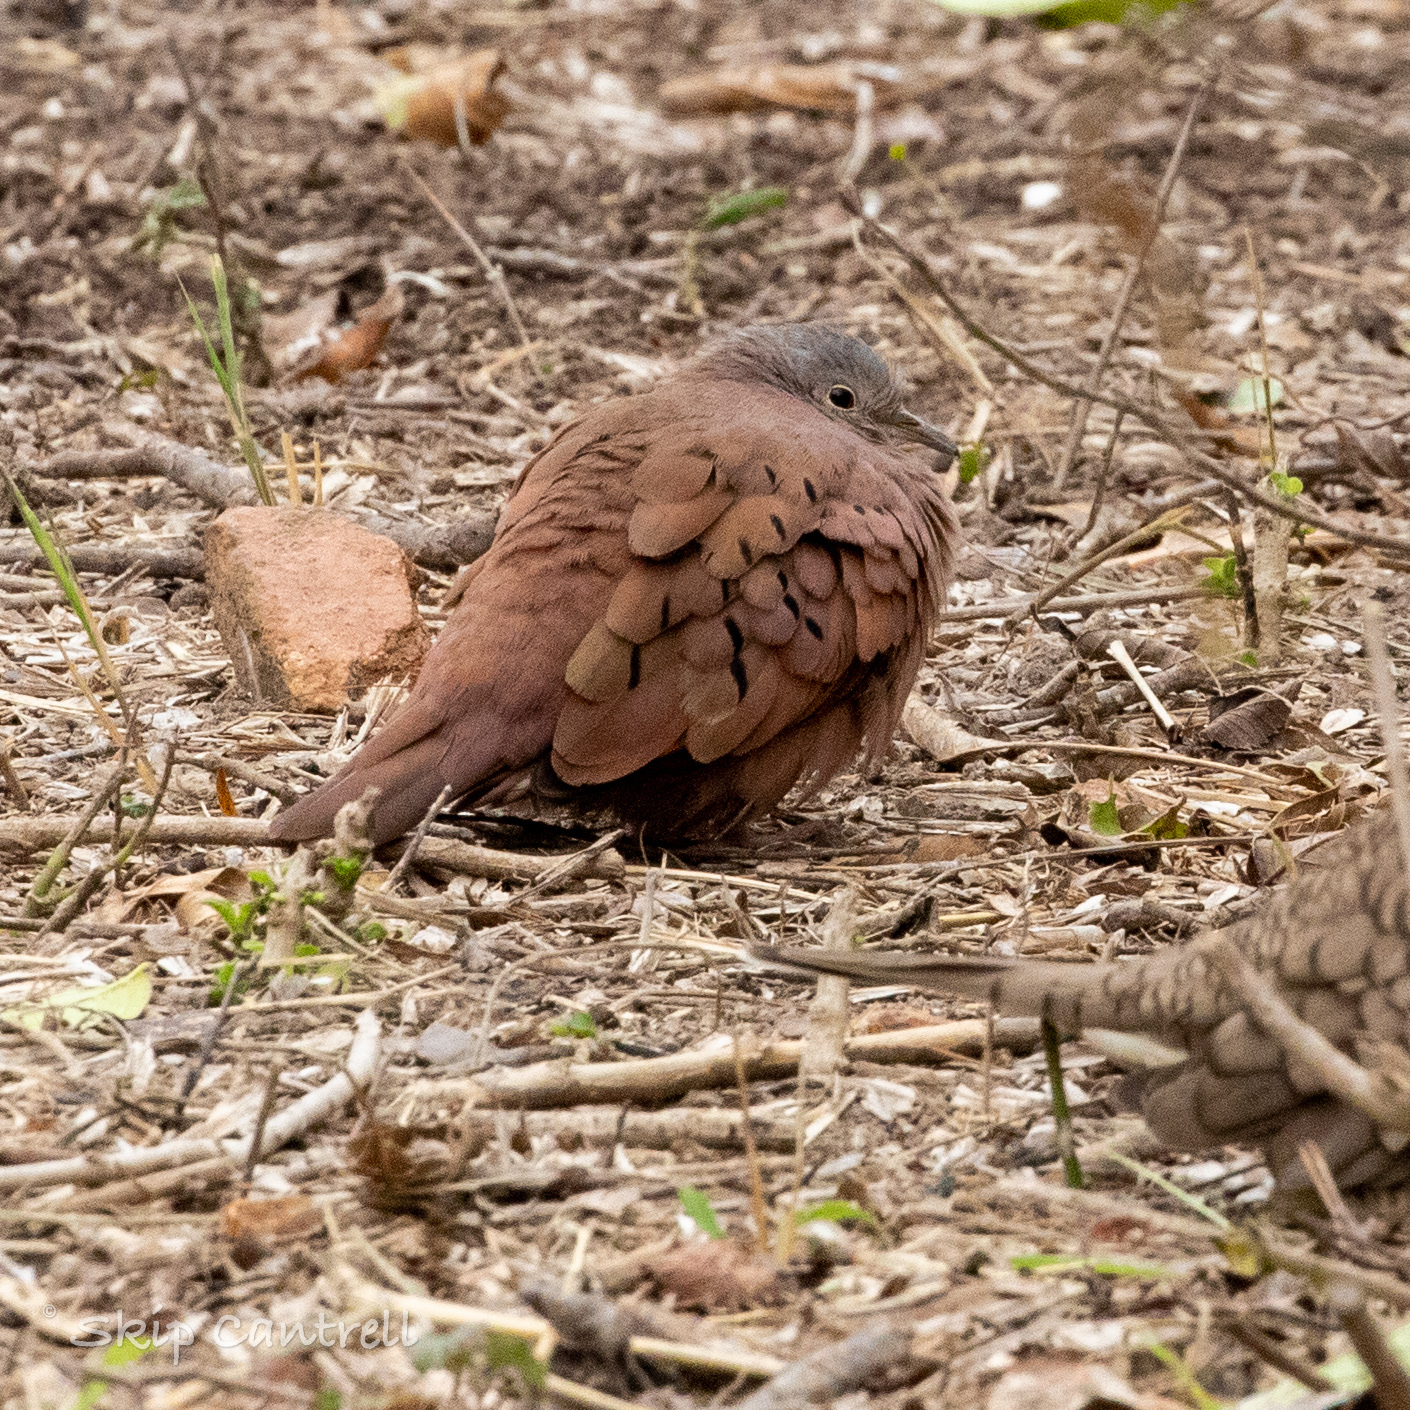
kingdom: Animalia
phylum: Chordata
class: Aves
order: Columbiformes
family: Columbidae
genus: Columbina
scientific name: Columbina talpacoti
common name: Ruddy ground dove
